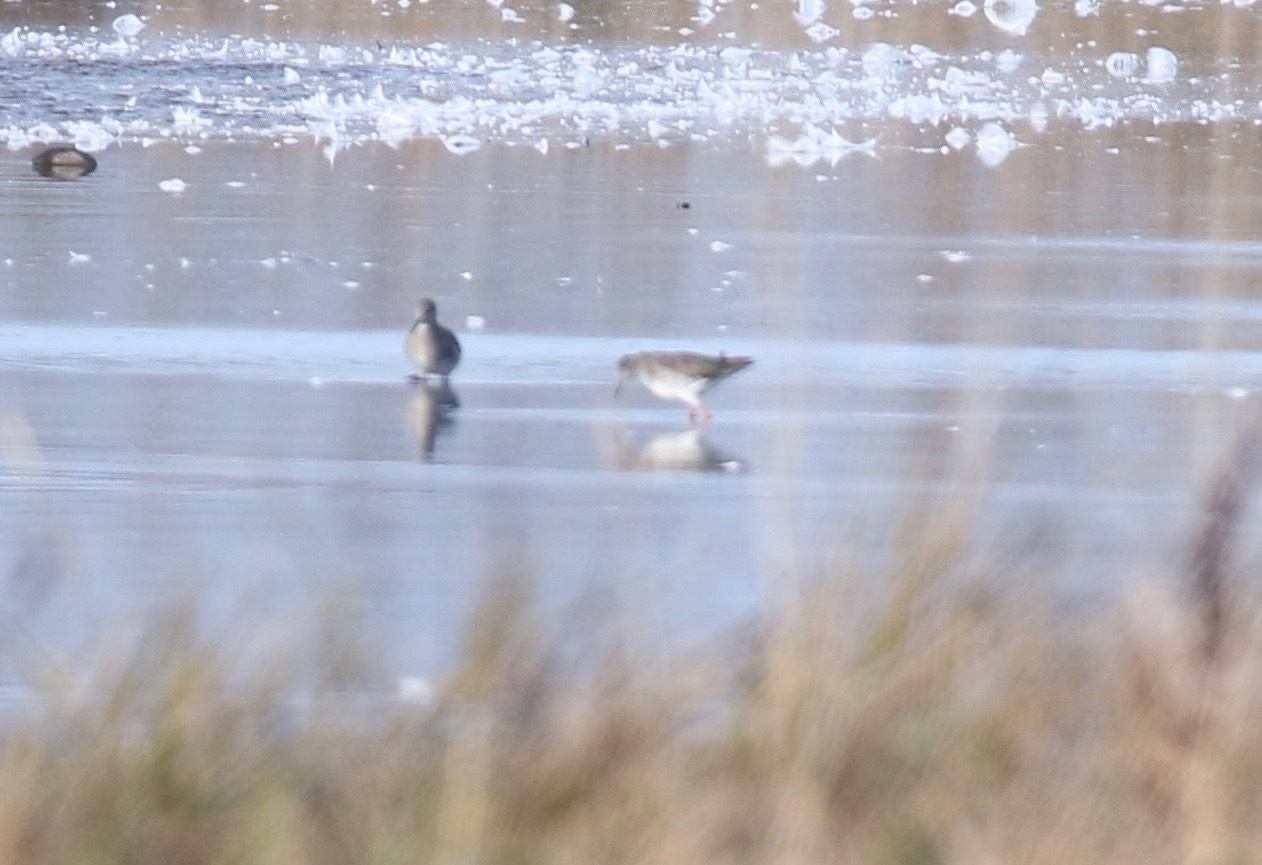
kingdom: Animalia
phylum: Chordata
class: Aves
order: Charadriiformes
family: Scolopacidae
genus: Tringa
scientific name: Tringa totanus
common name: Common redshank
